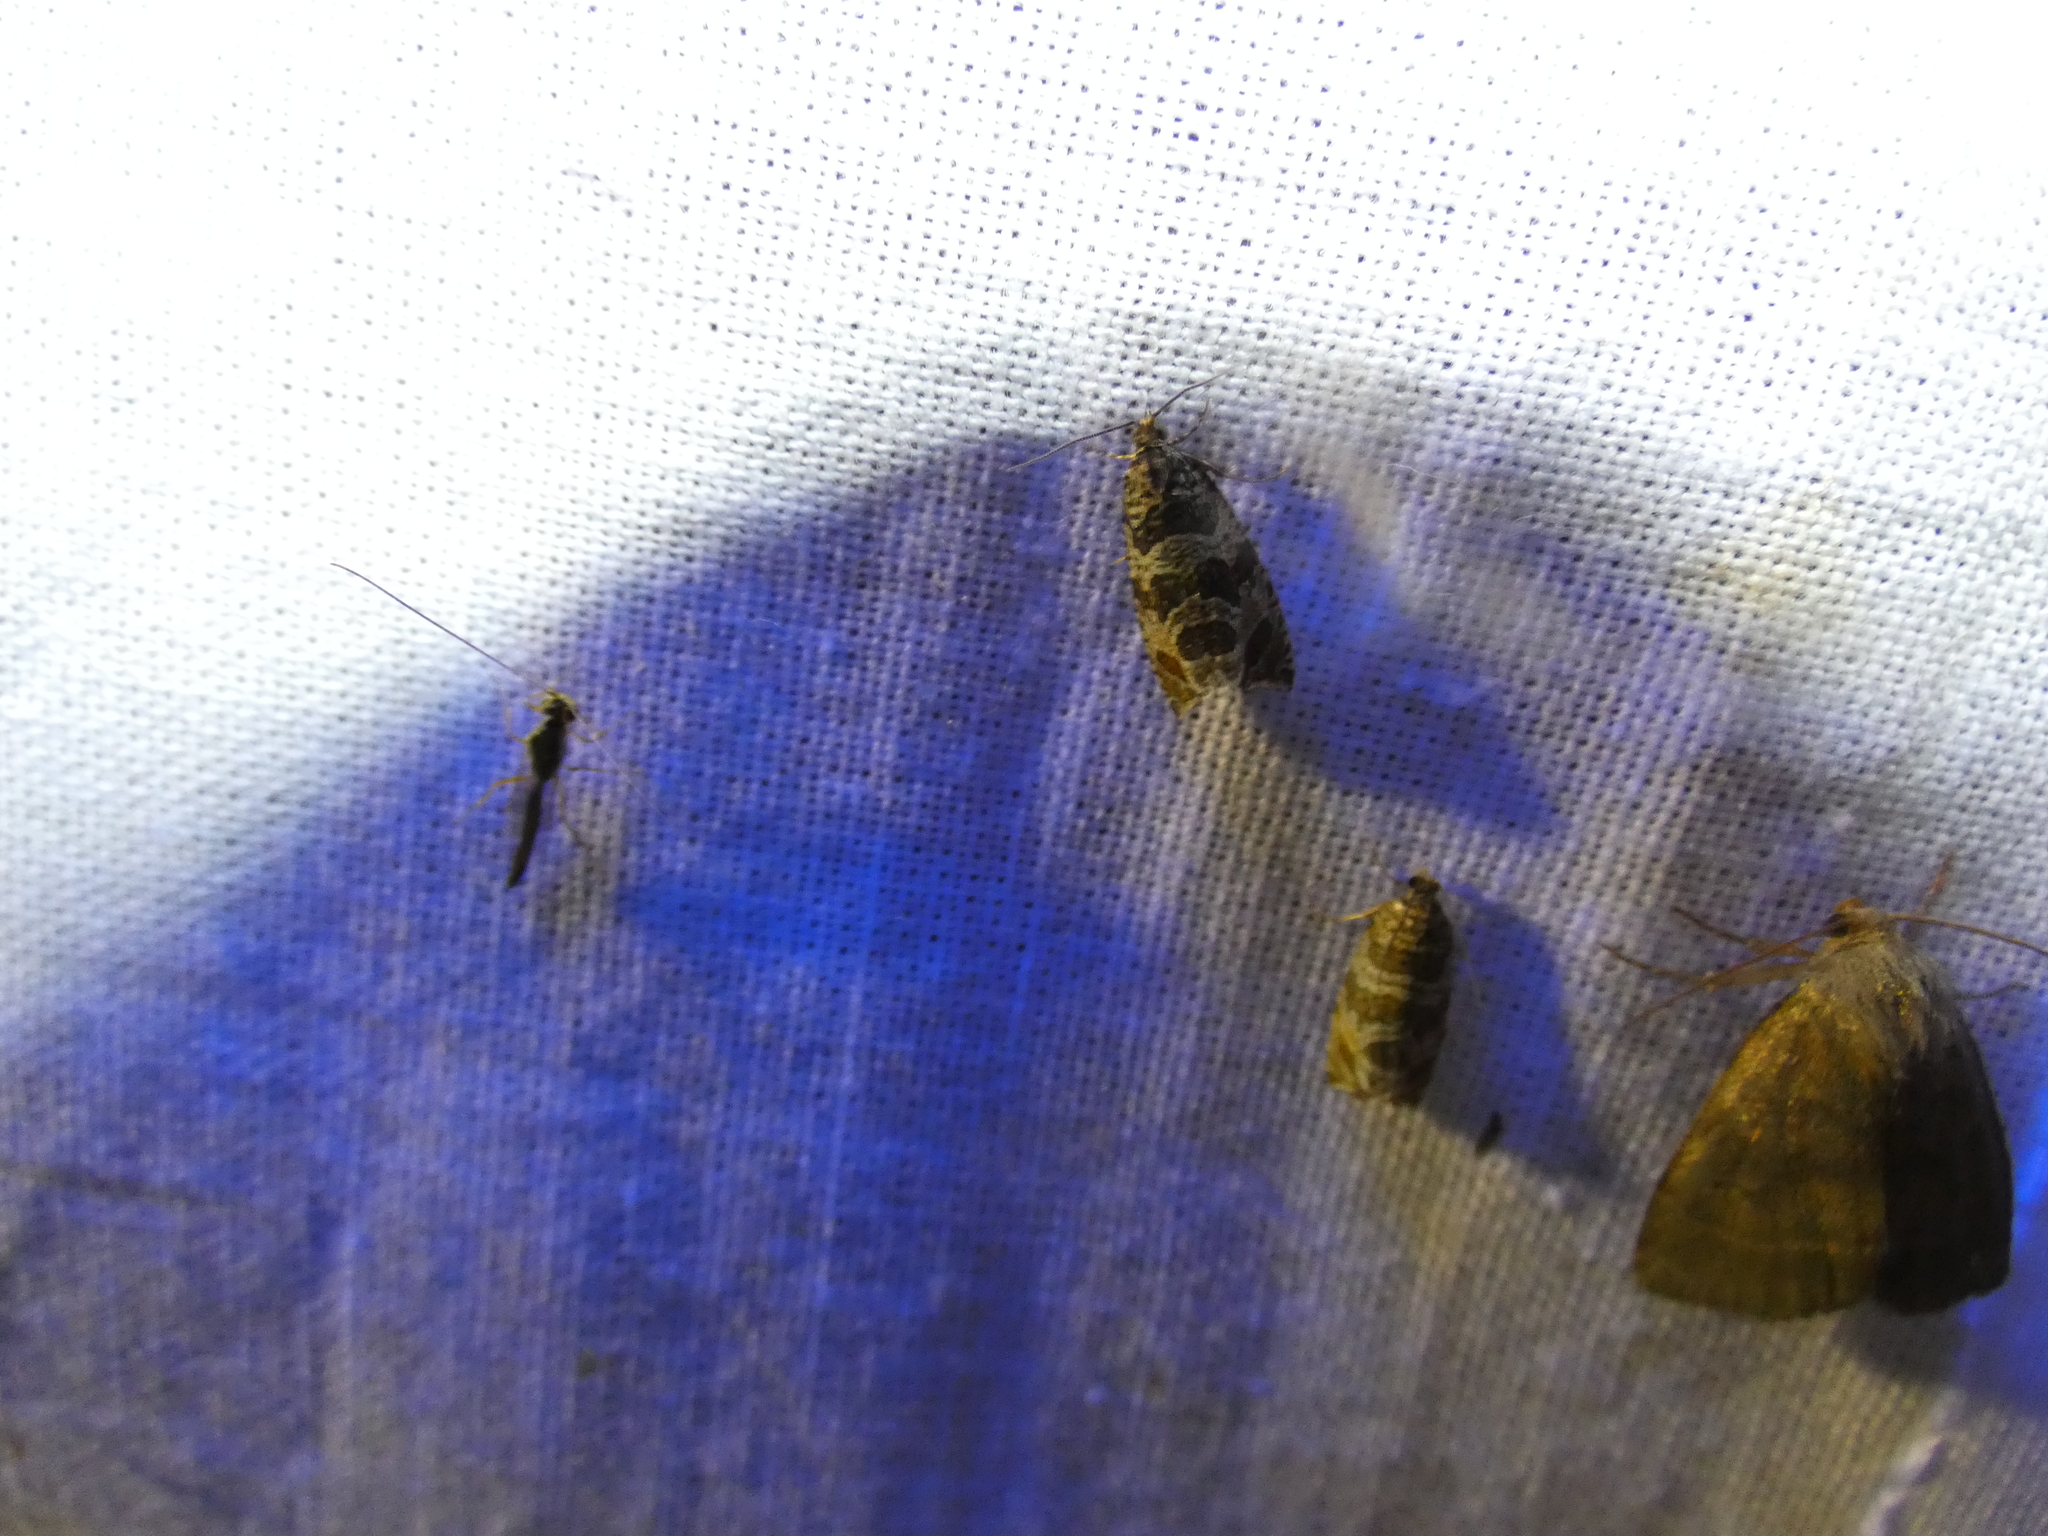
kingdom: Animalia
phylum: Arthropoda
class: Insecta
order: Lepidoptera
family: Tortricidae
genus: Syricoris
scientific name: Syricoris rivulana
